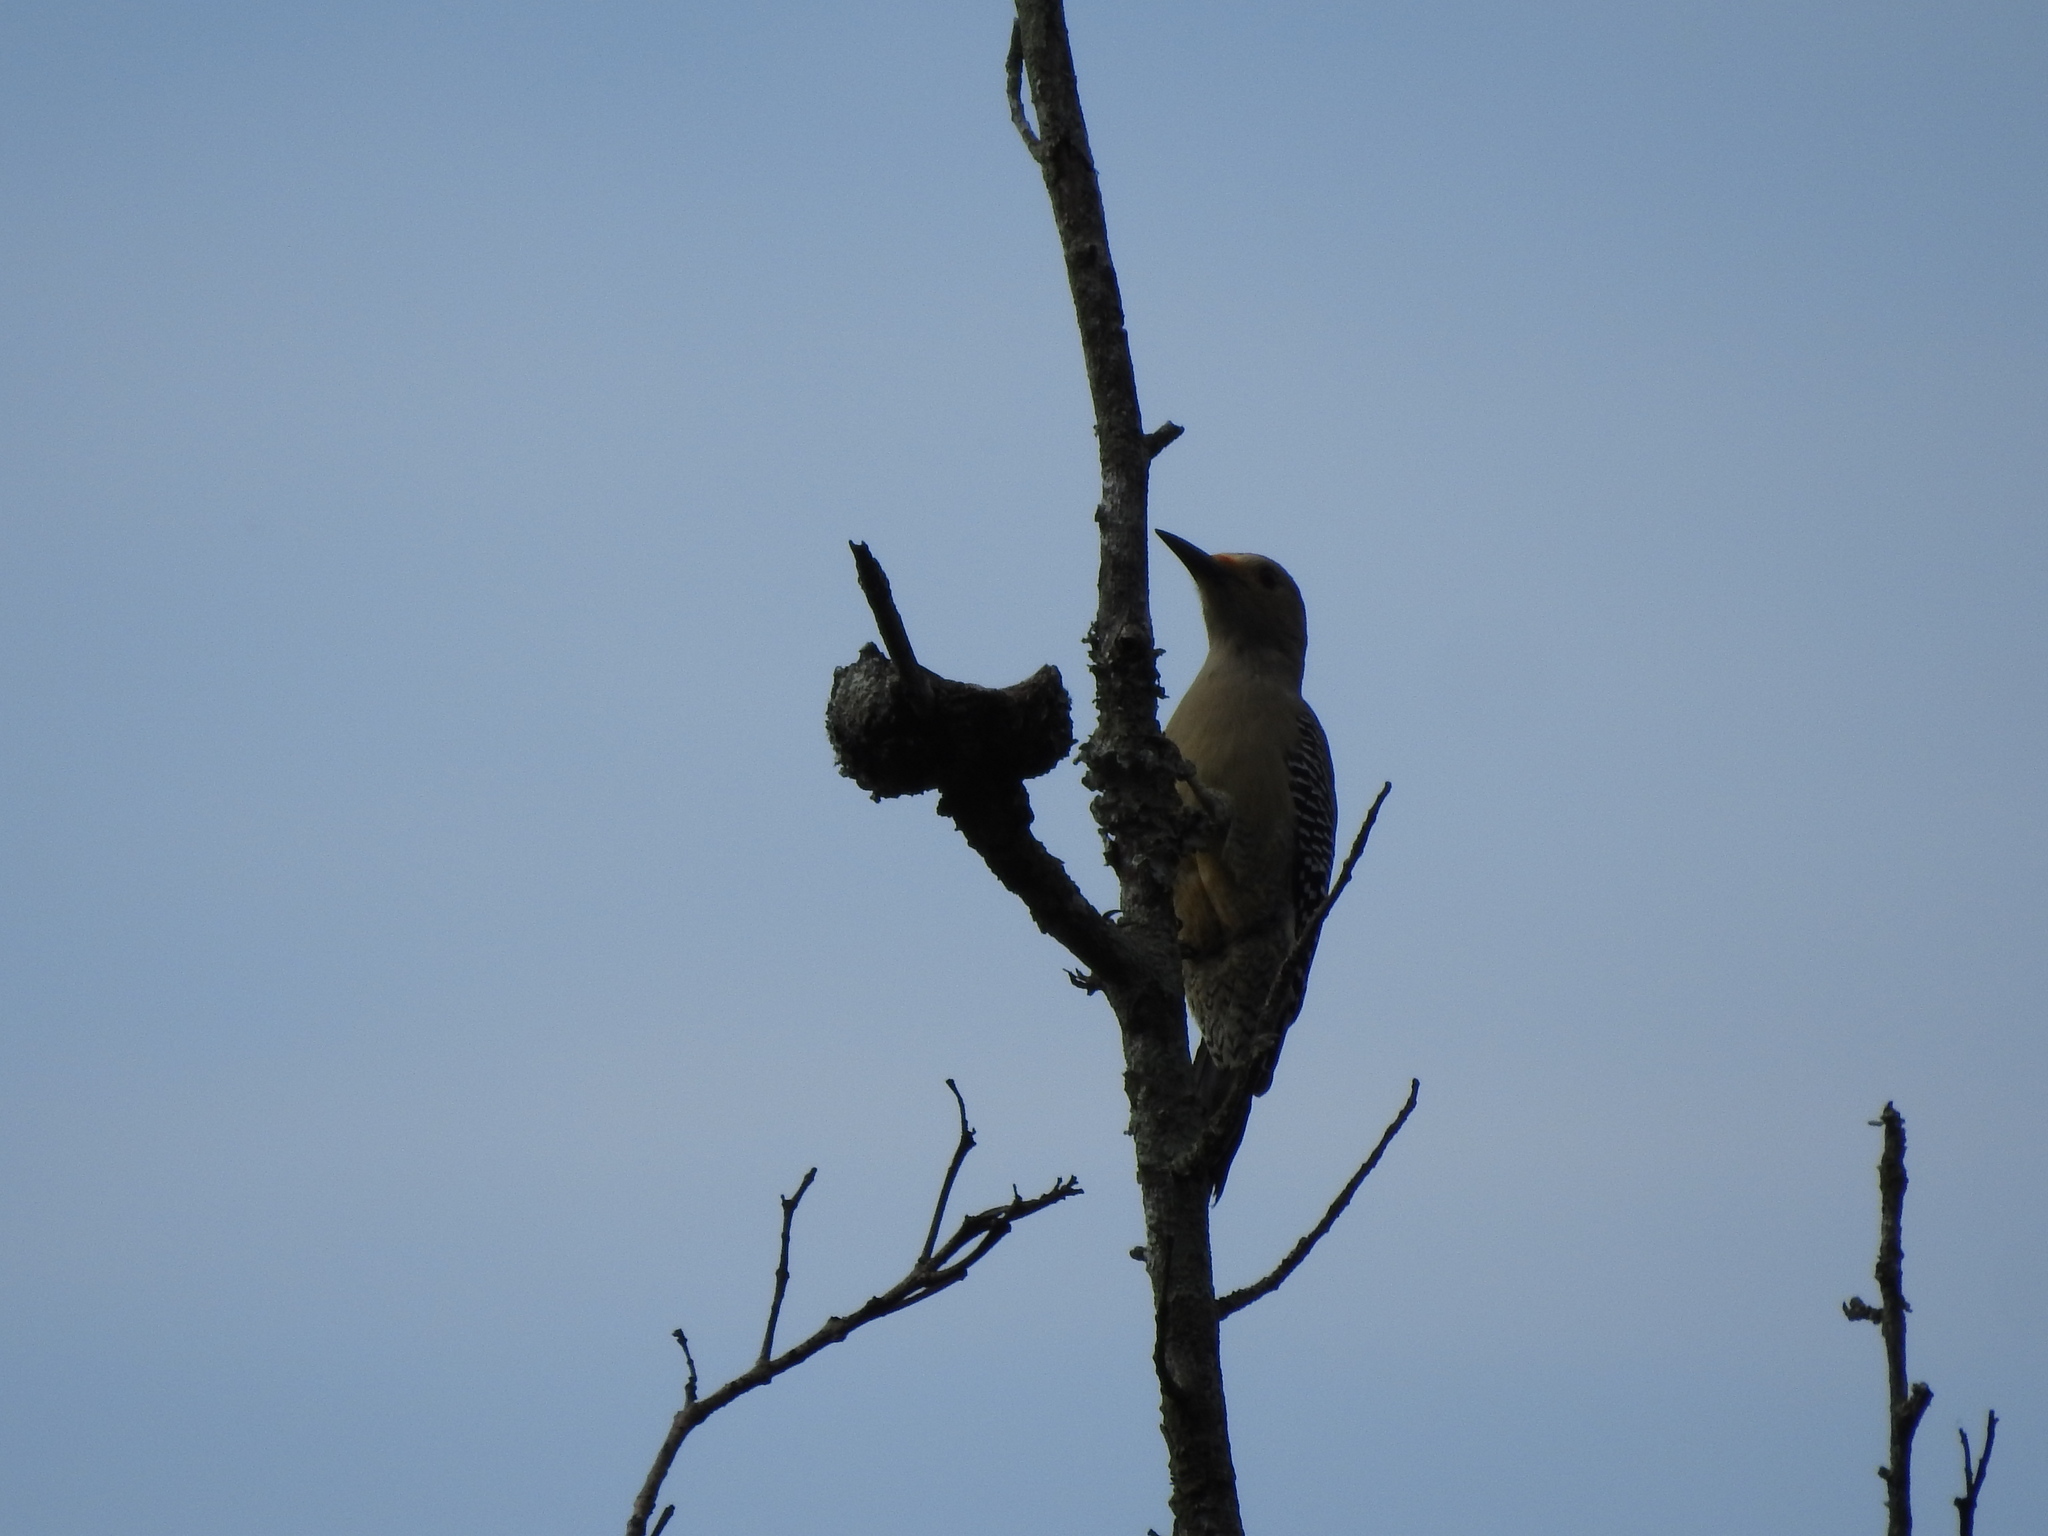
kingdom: Animalia
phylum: Chordata
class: Aves
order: Piciformes
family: Picidae
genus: Melanerpes
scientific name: Melanerpes aurifrons
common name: Golden-fronted woodpecker
